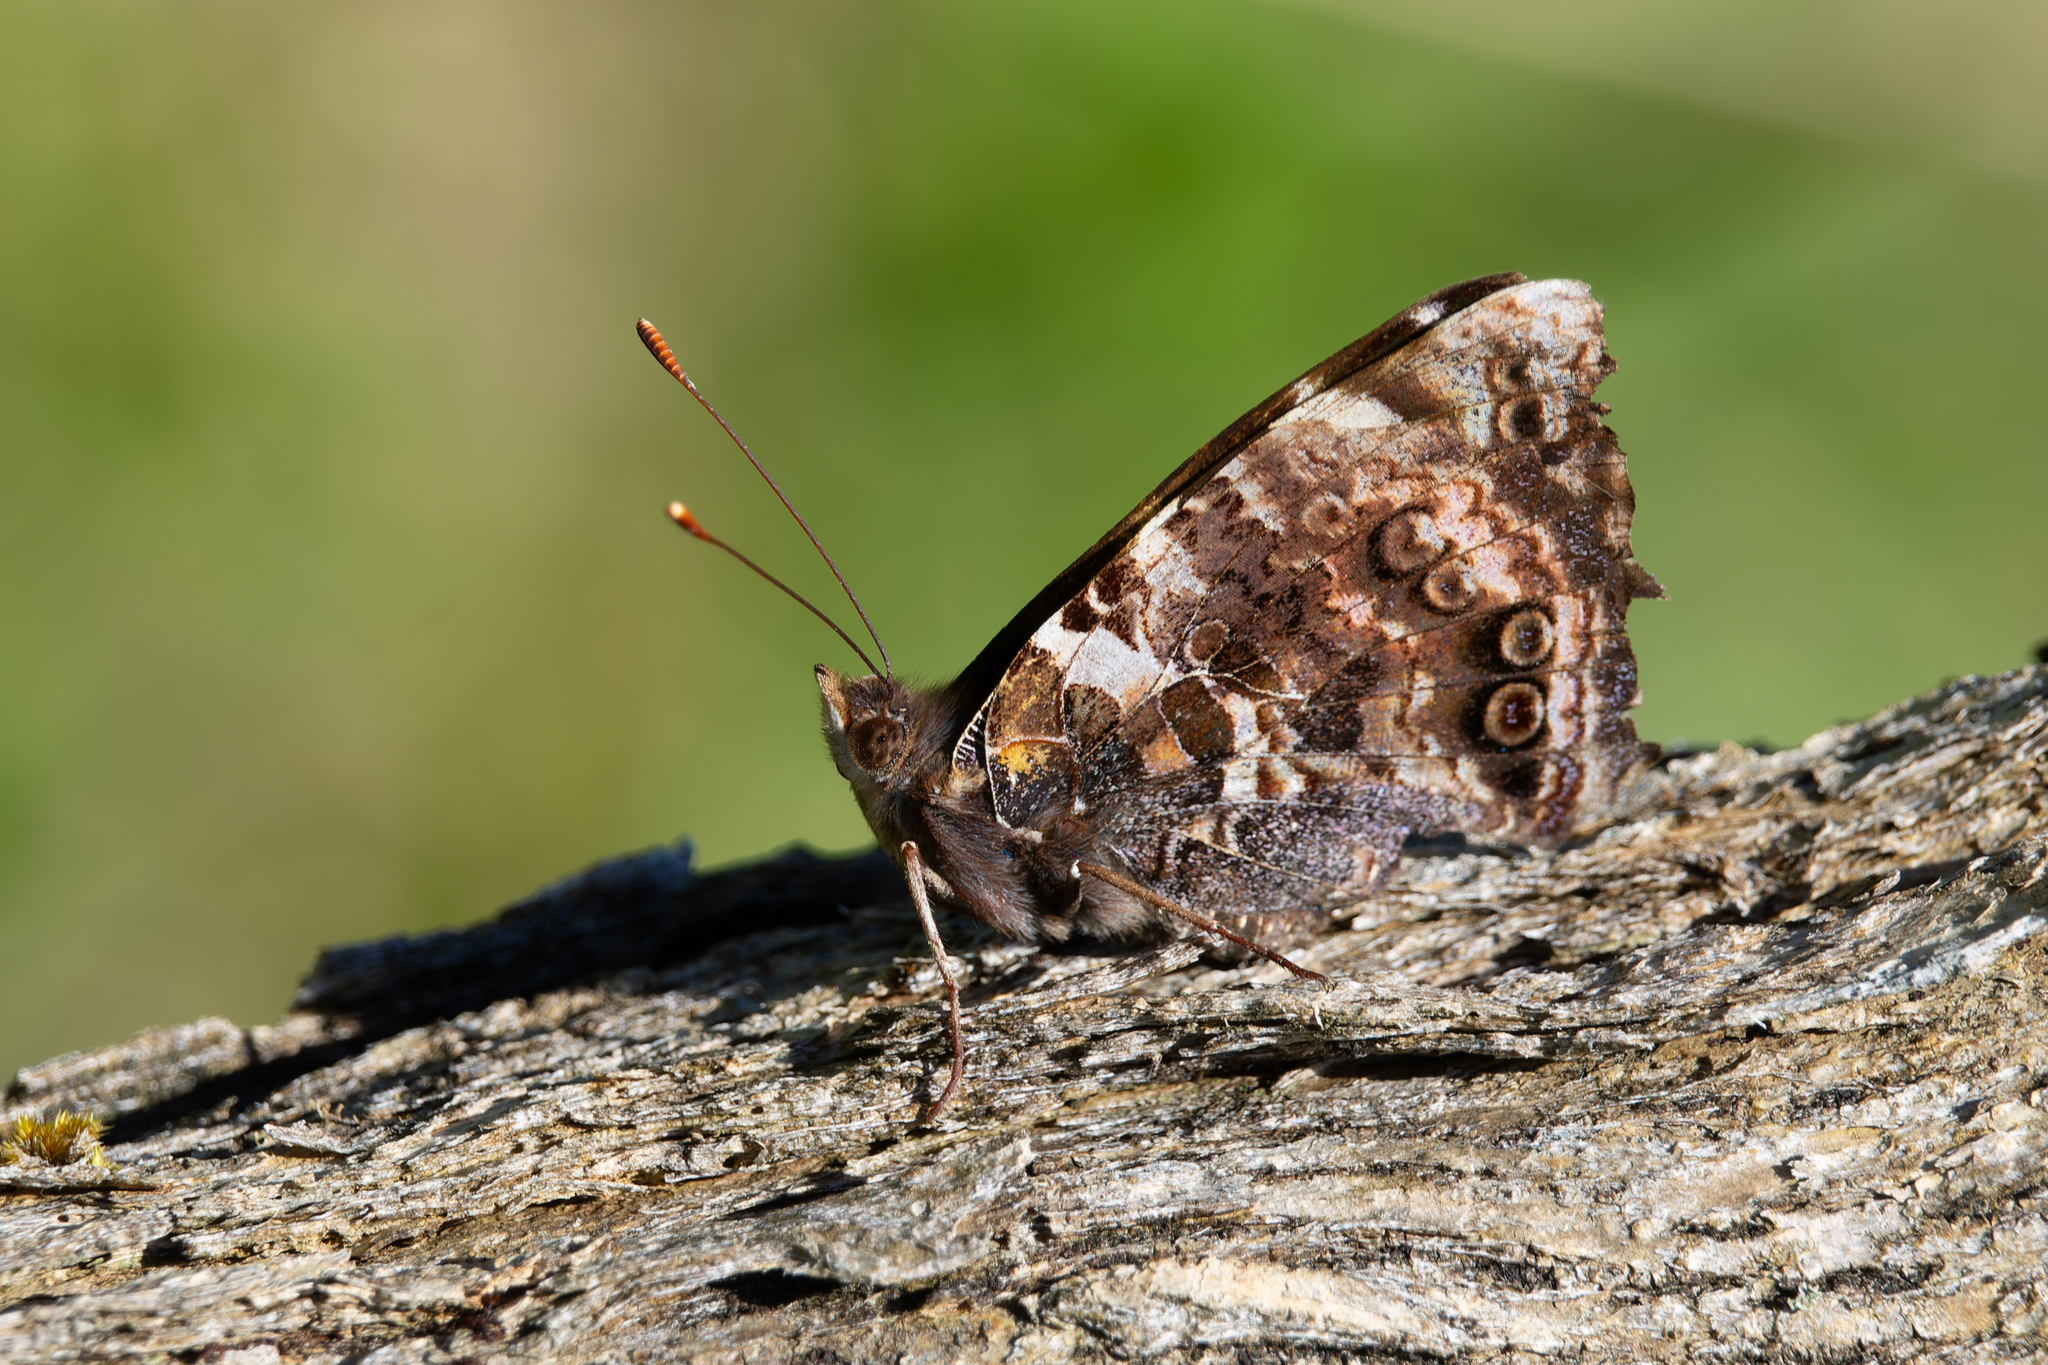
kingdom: Animalia
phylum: Arthropoda
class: Insecta
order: Lepidoptera
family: Nymphalidae
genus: Vanessa
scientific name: Vanessa gonerilla
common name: New zealand red admiral
